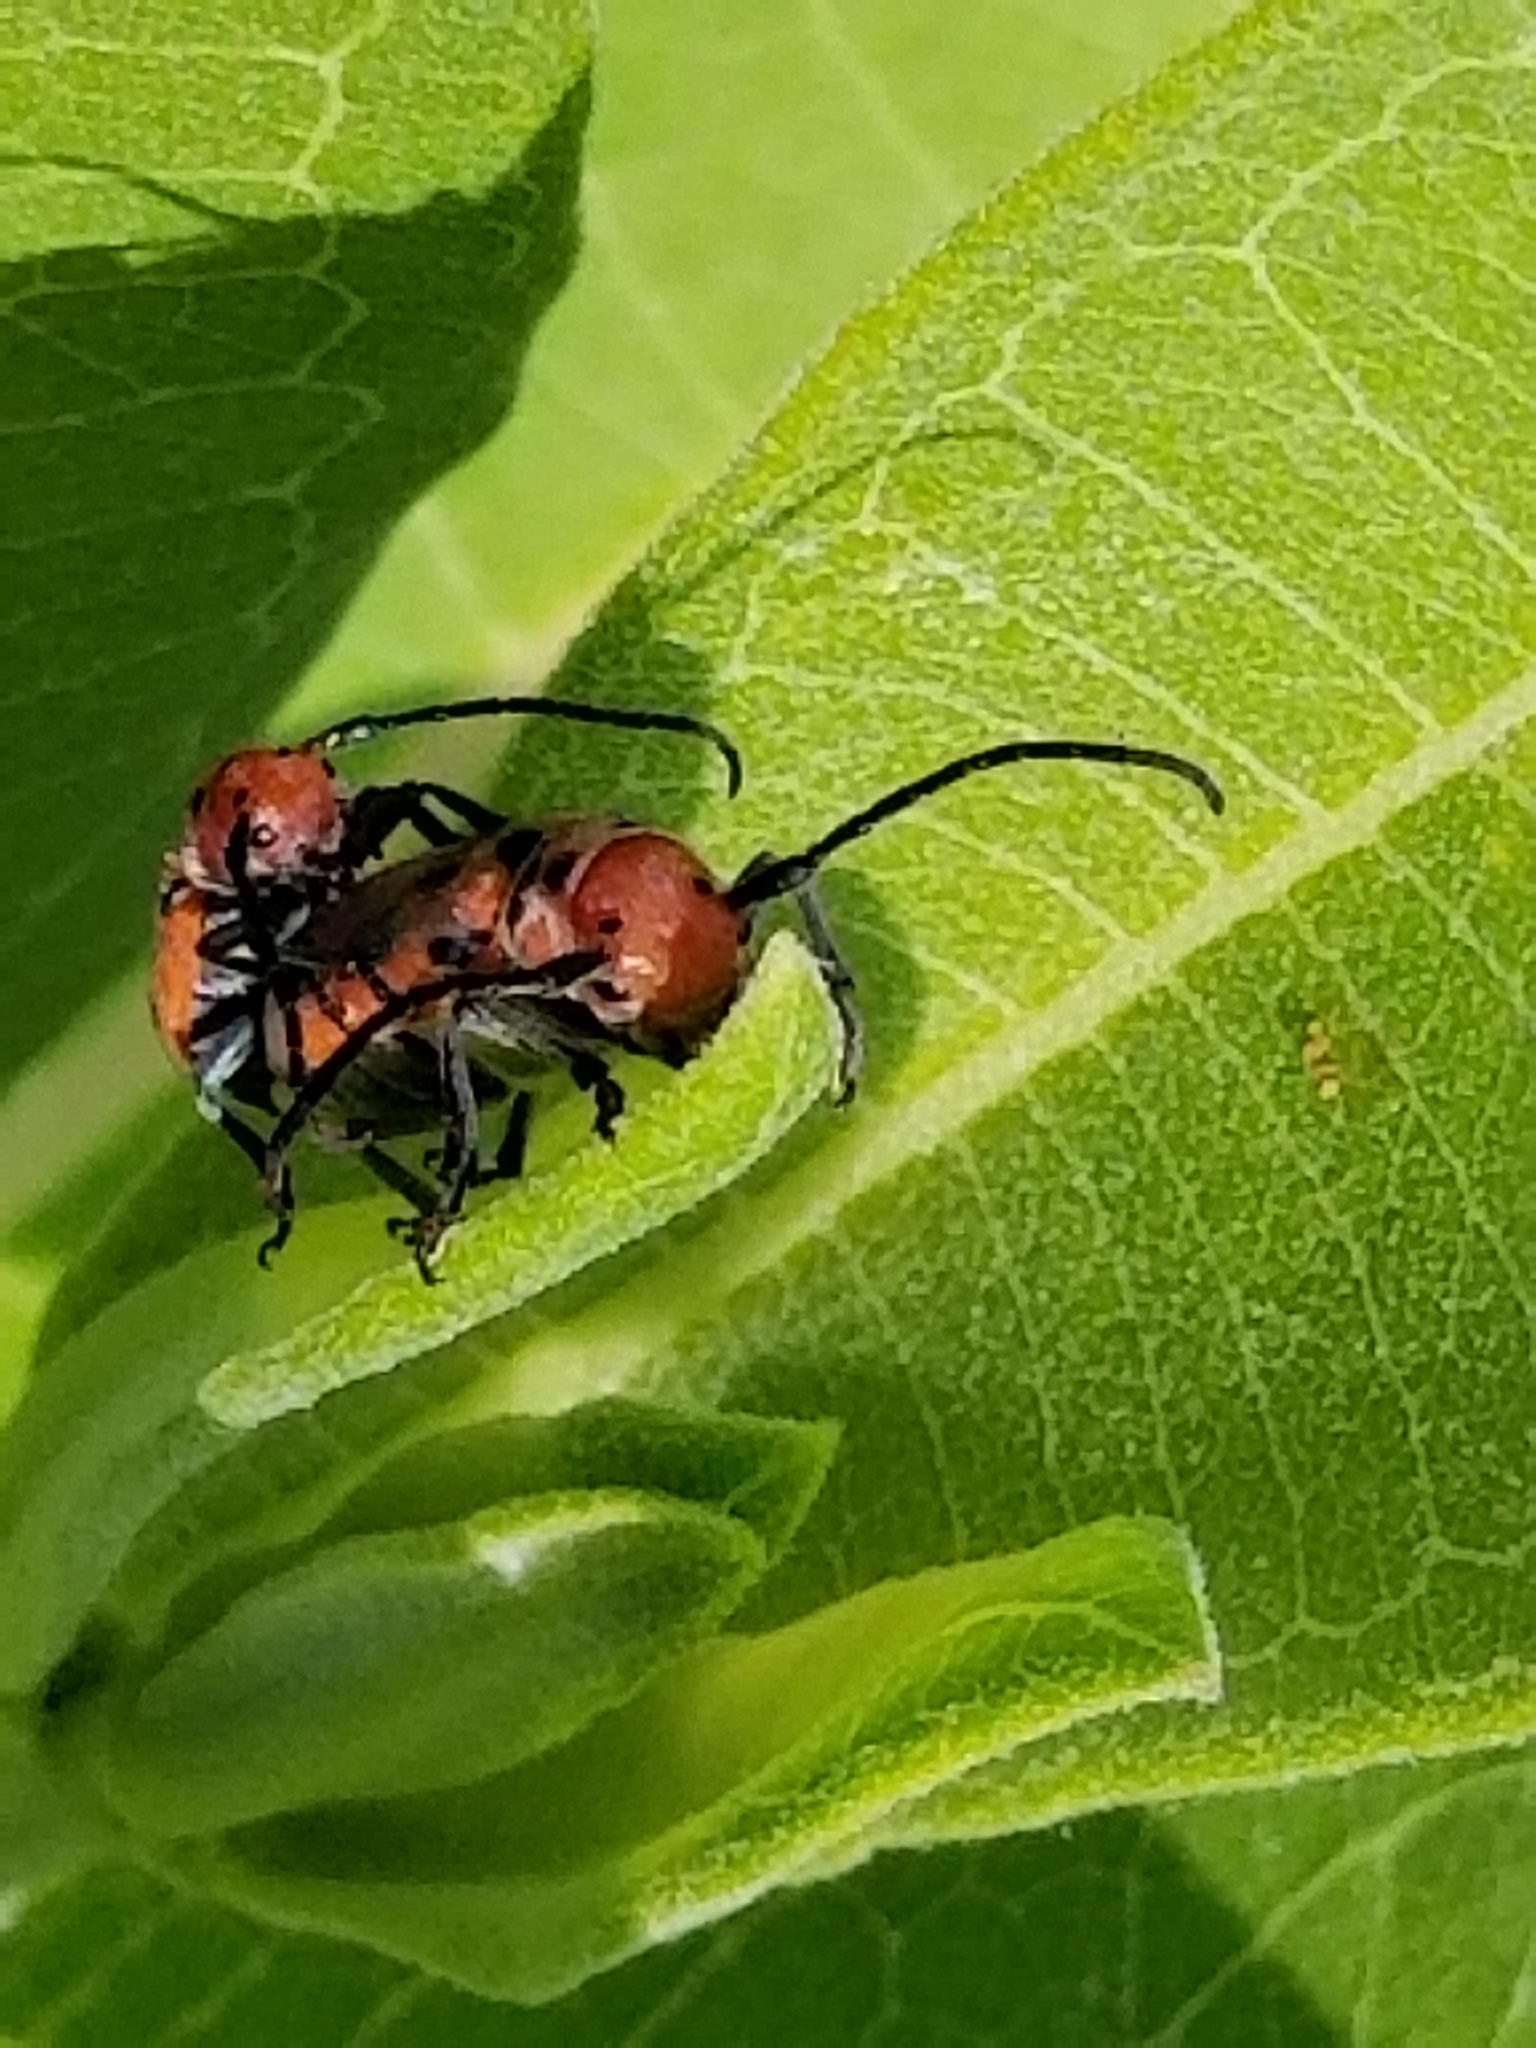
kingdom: Animalia
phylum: Arthropoda
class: Insecta
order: Coleoptera
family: Cerambycidae
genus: Tetraopes
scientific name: Tetraopes tetrophthalmus
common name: Red milkweed beetle
